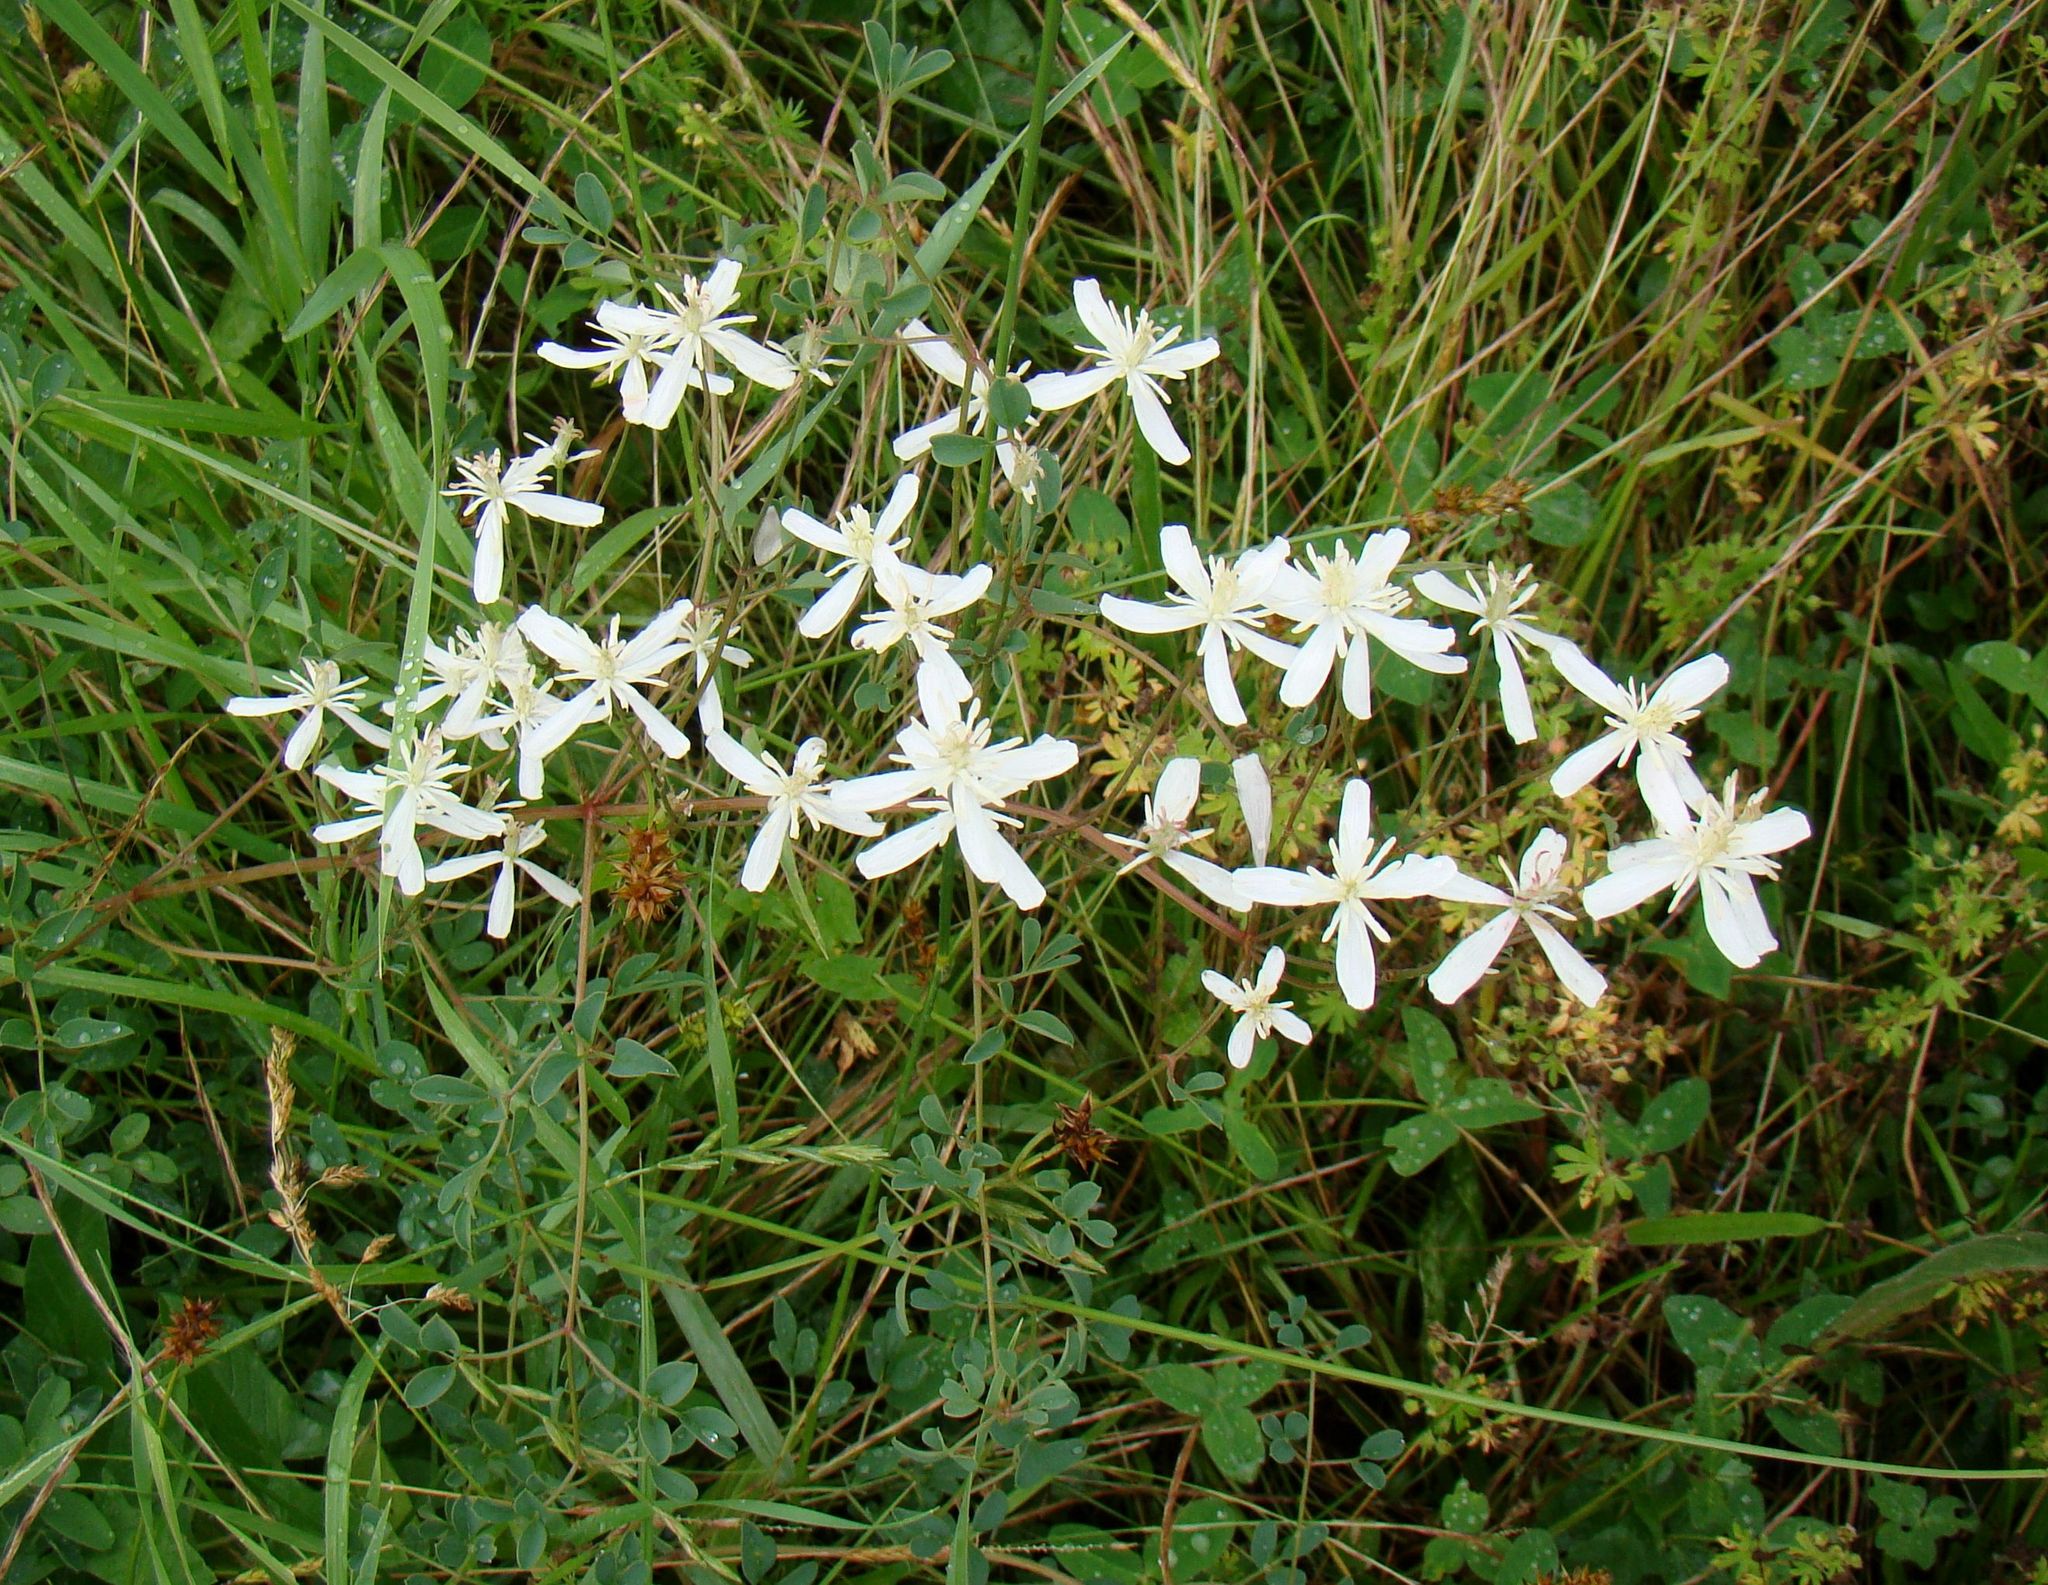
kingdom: Plantae
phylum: Tracheophyta
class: Magnoliopsida
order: Ranunculales
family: Ranunculaceae
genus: Clematis
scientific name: Clematis lathyrifolia
